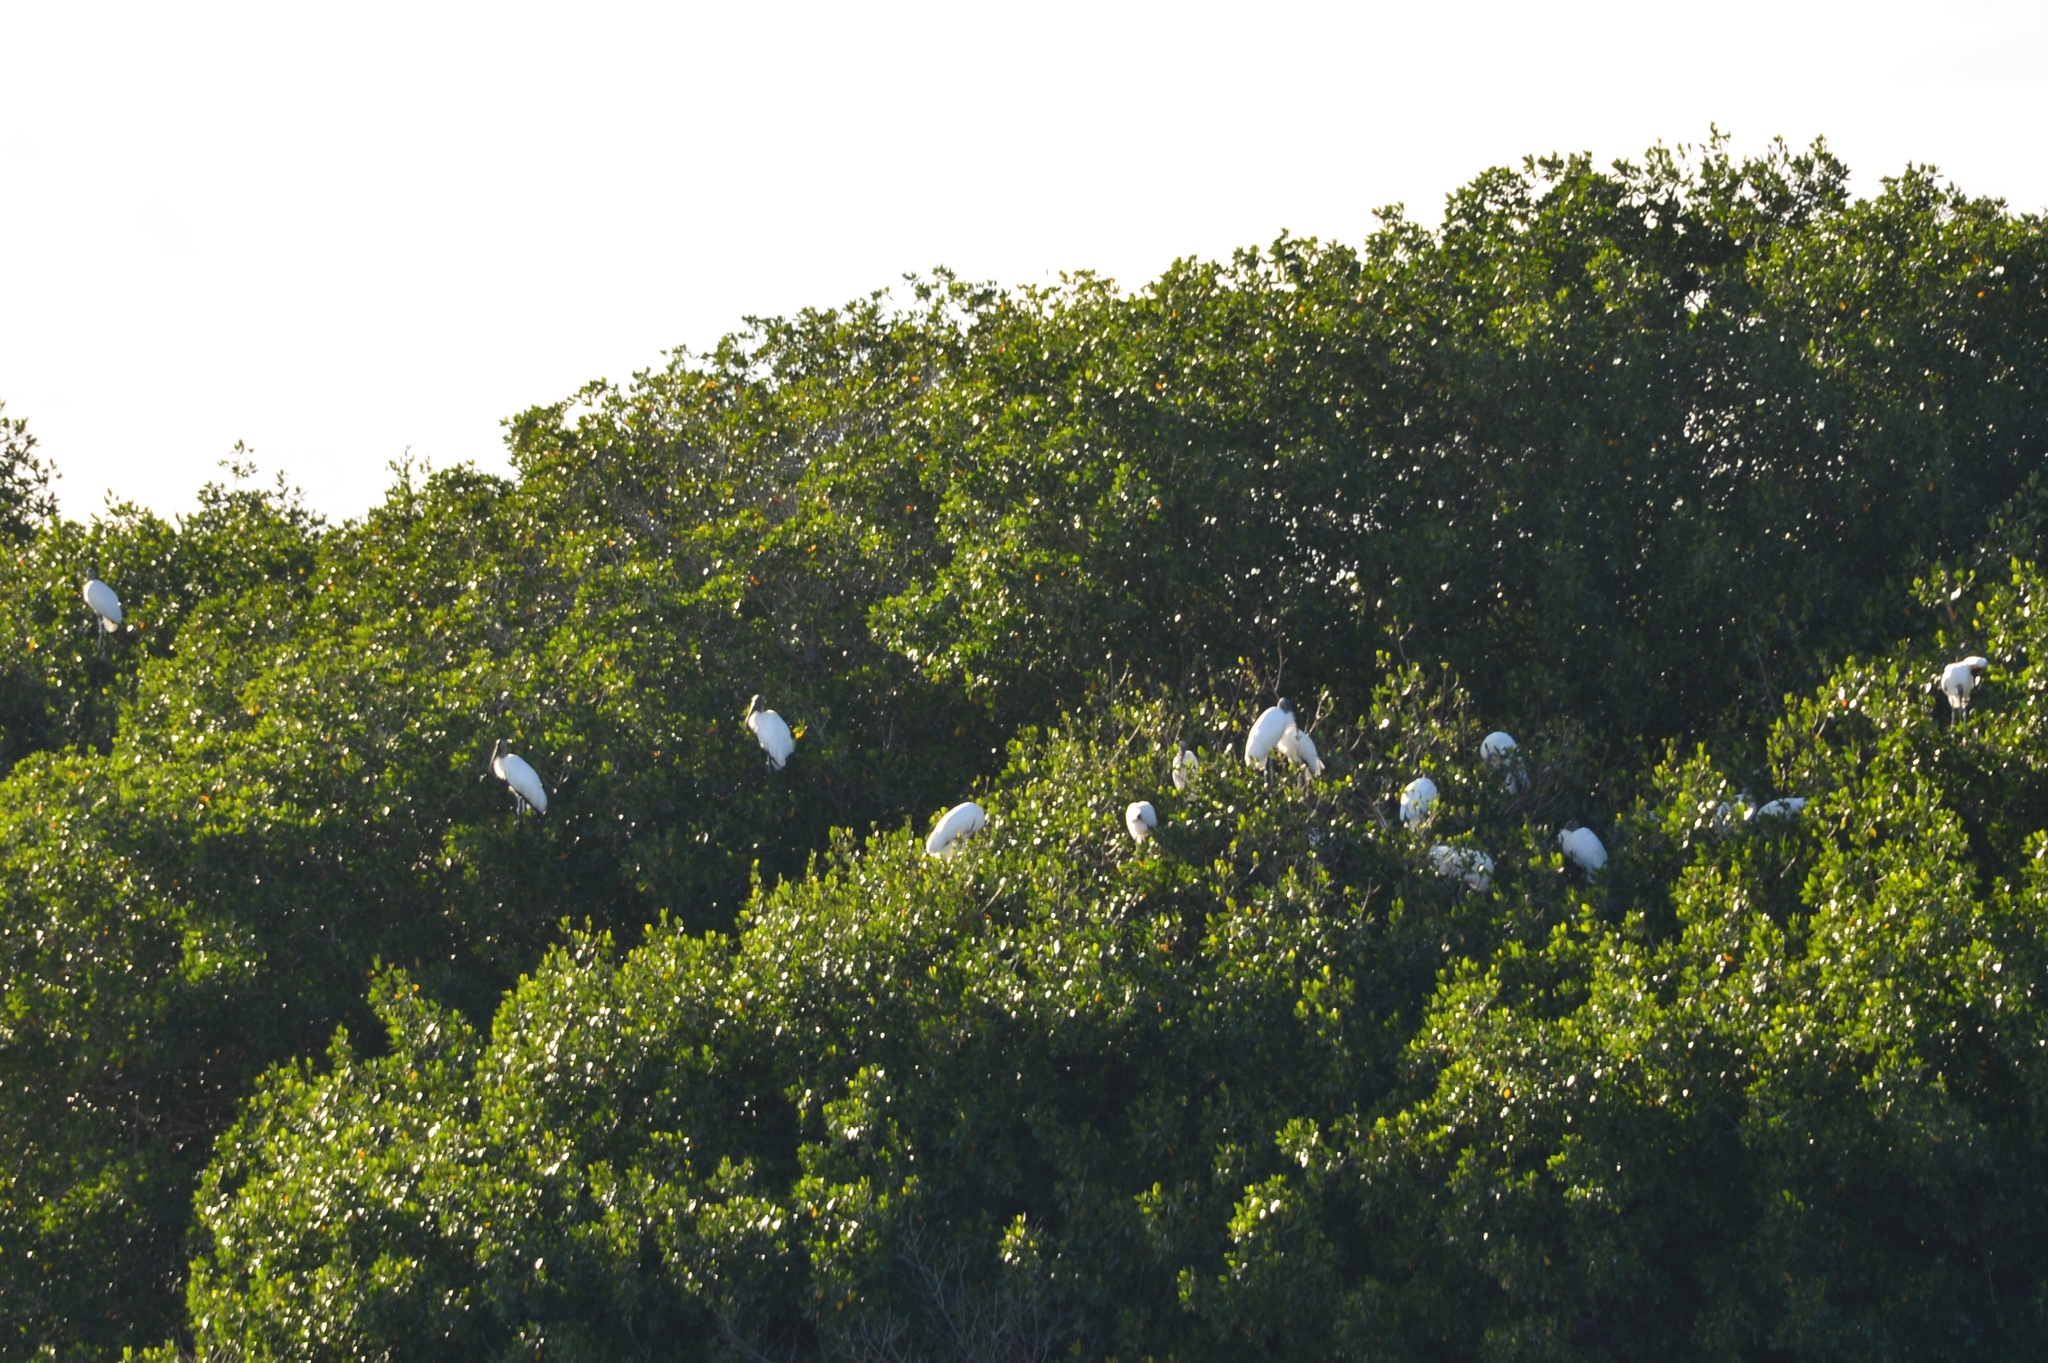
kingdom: Animalia
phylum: Chordata
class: Aves
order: Ciconiiformes
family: Ciconiidae
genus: Mycteria
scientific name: Mycteria americana
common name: Wood stork
